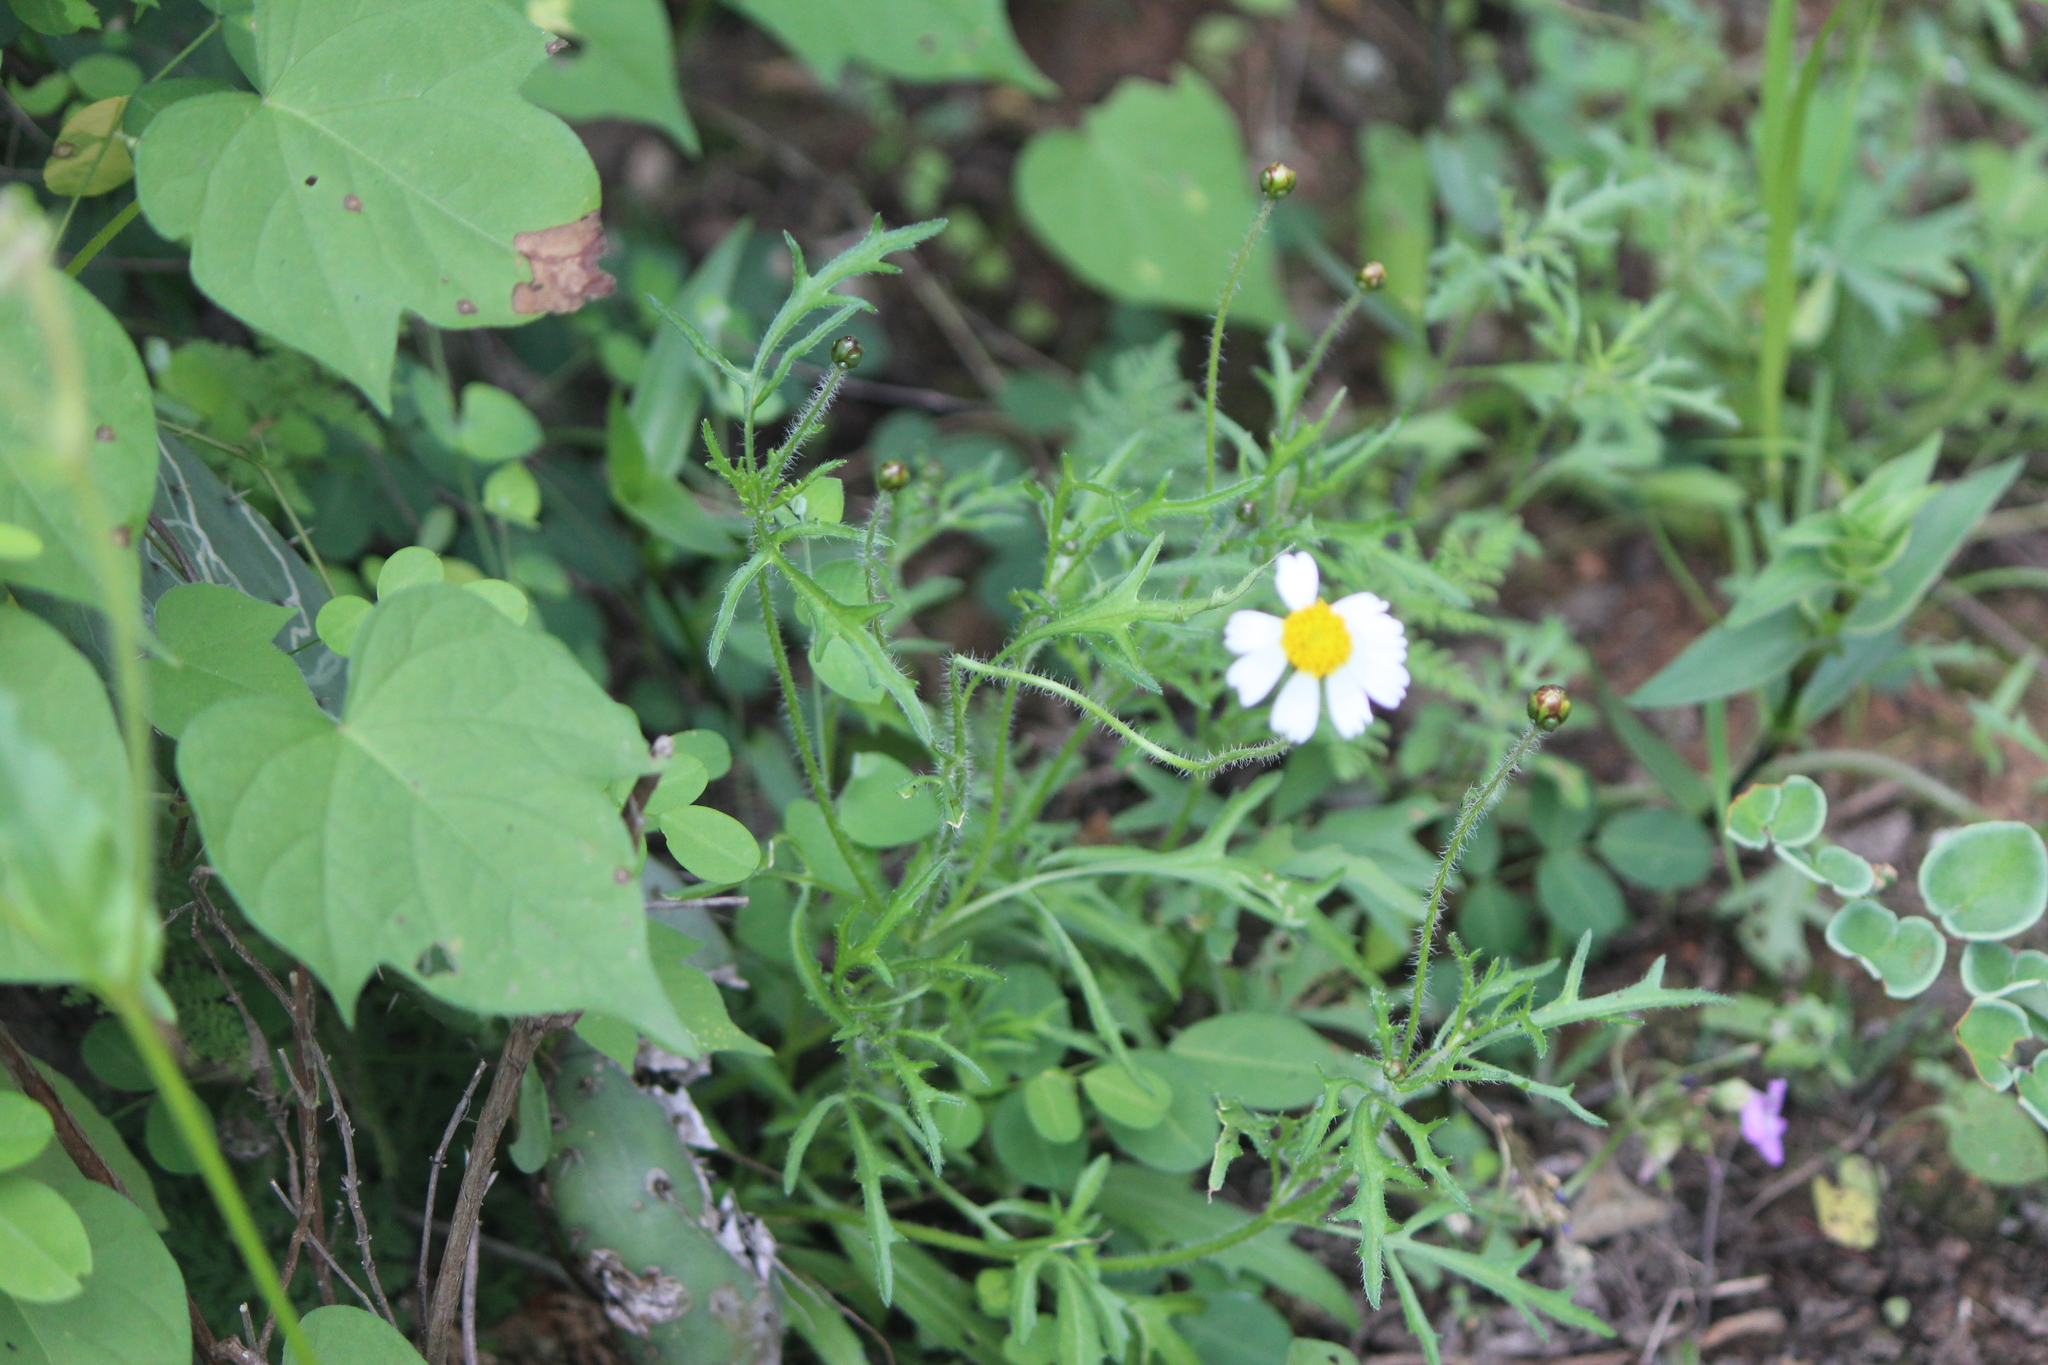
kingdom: Plantae
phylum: Tracheophyta
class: Magnoliopsida
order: Asterales
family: Asteraceae
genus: Tridax
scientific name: Tridax rosea
